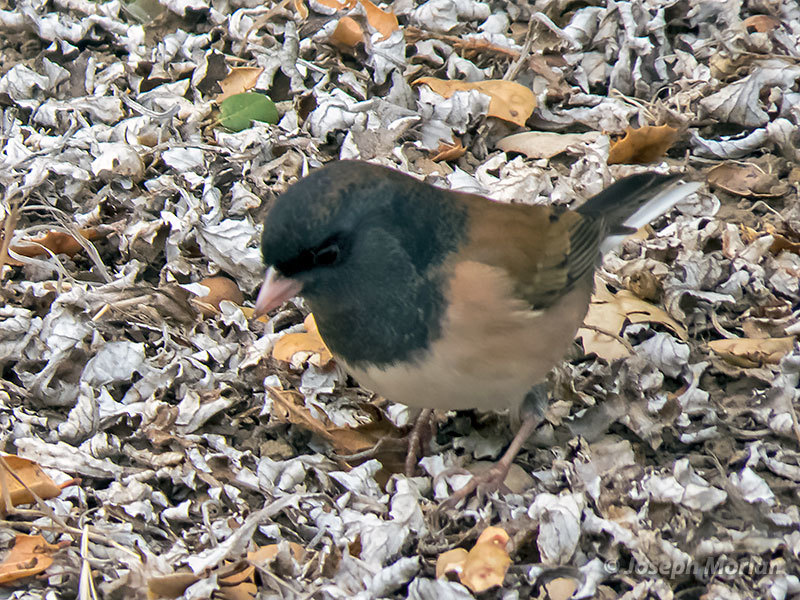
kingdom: Animalia
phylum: Chordata
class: Aves
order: Passeriformes
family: Passerellidae
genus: Junco
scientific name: Junco hyemalis
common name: Dark-eyed junco
